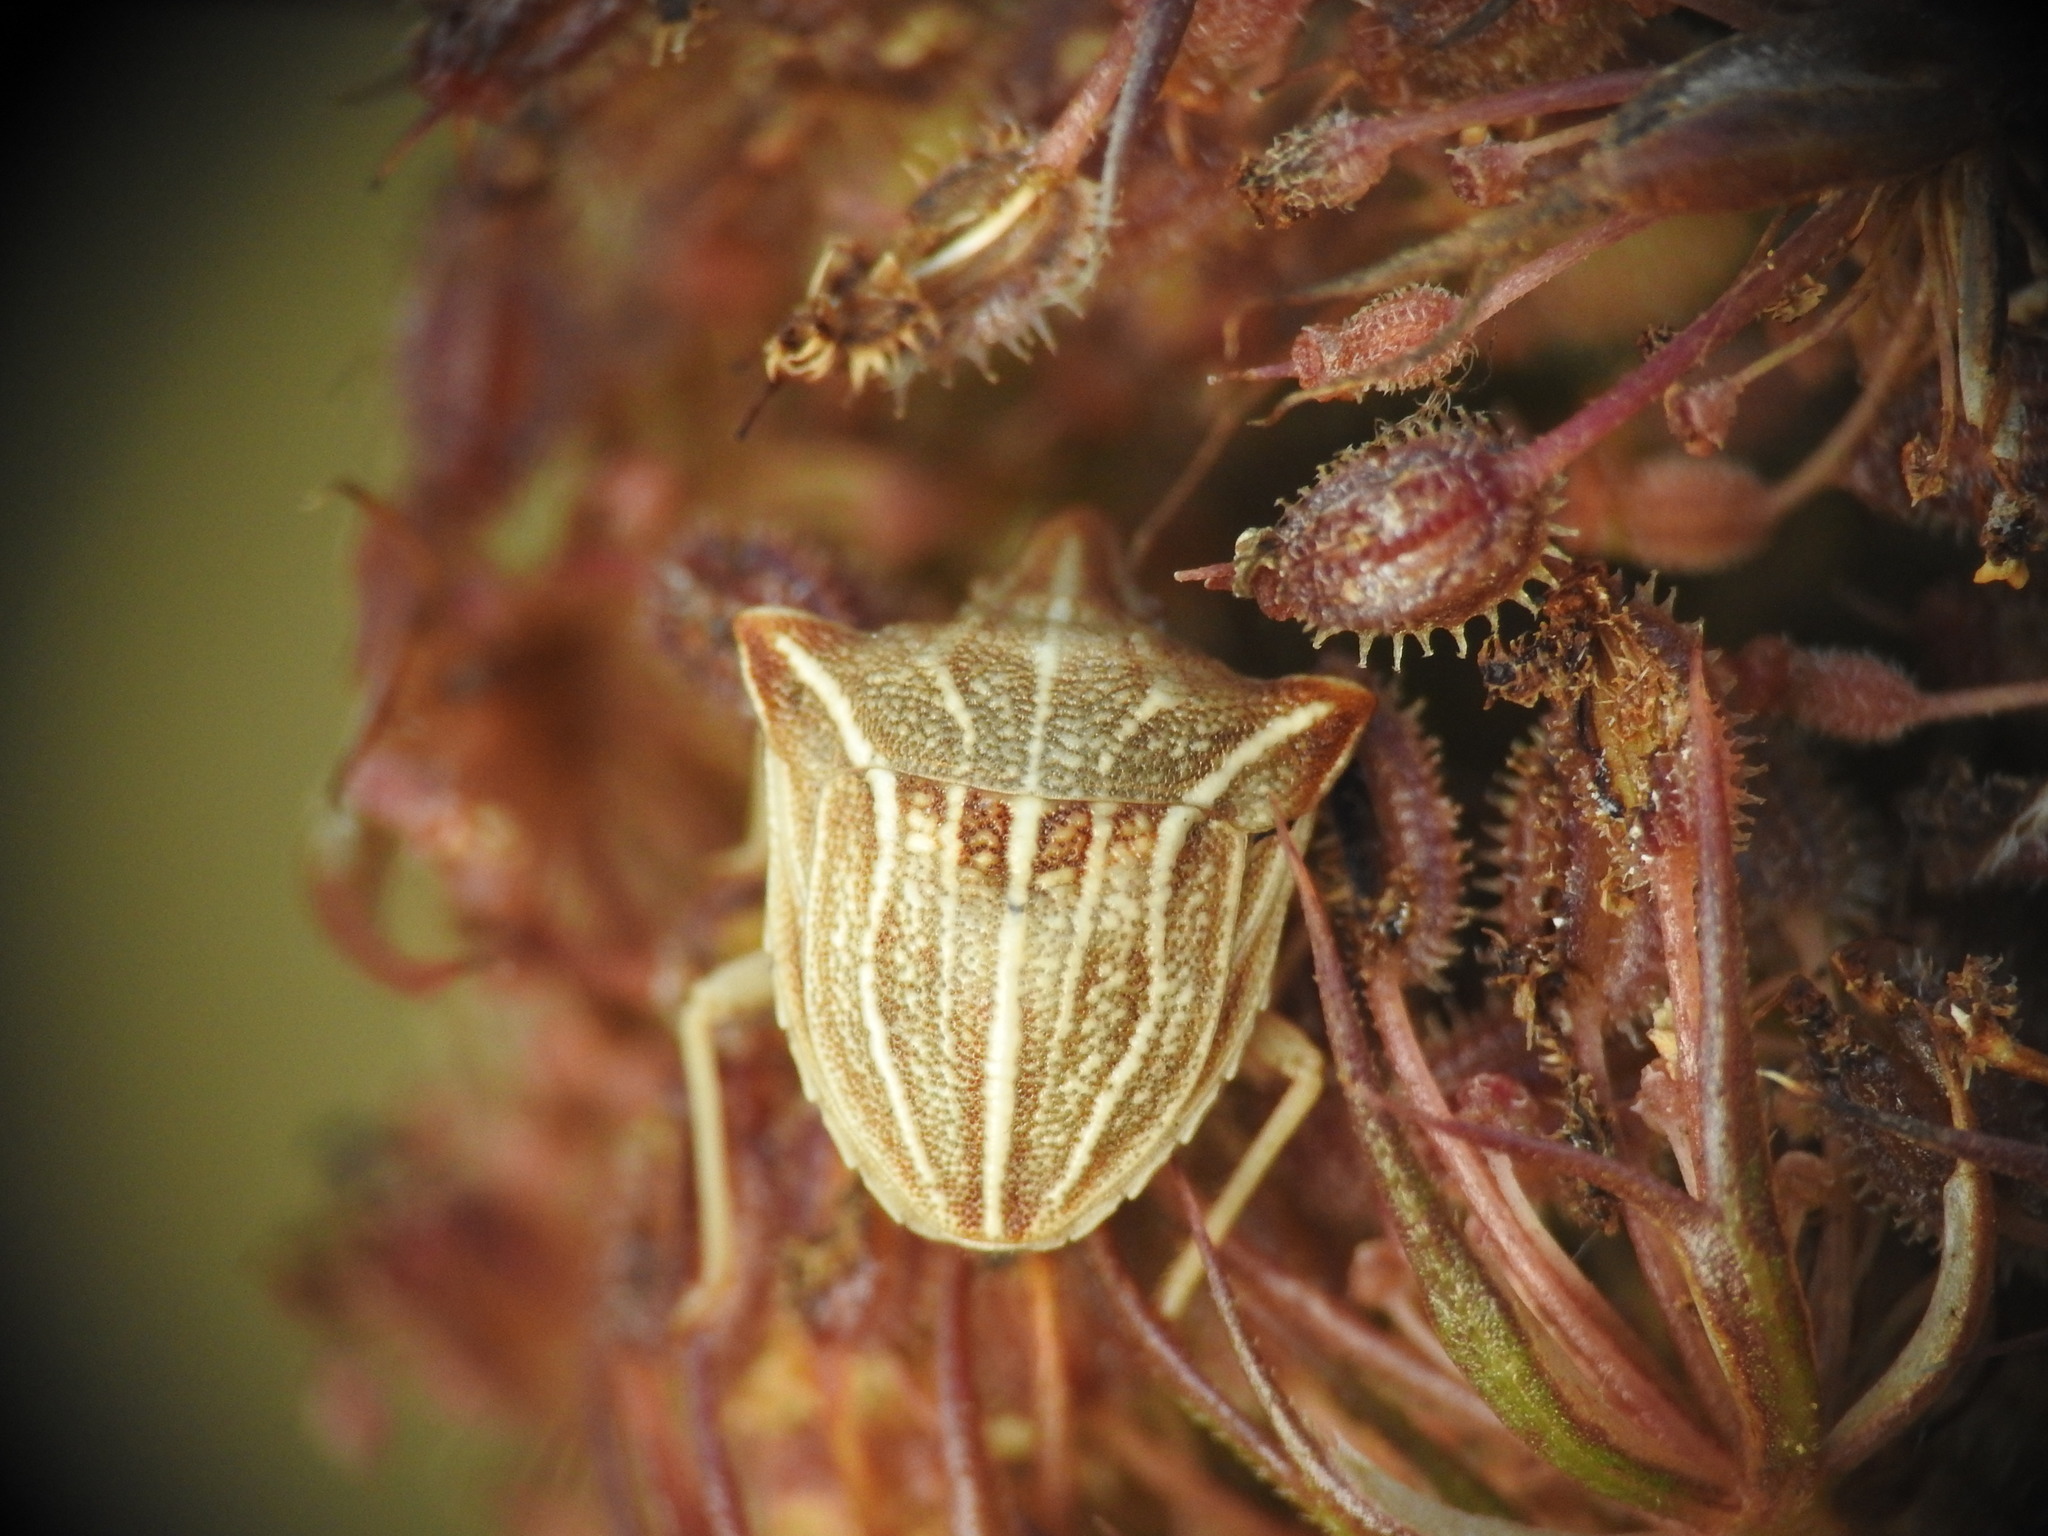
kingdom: Animalia
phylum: Arthropoda
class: Insecta
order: Hemiptera
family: Pentatomidae
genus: Ancyrosoma
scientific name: Ancyrosoma leucogrammes
